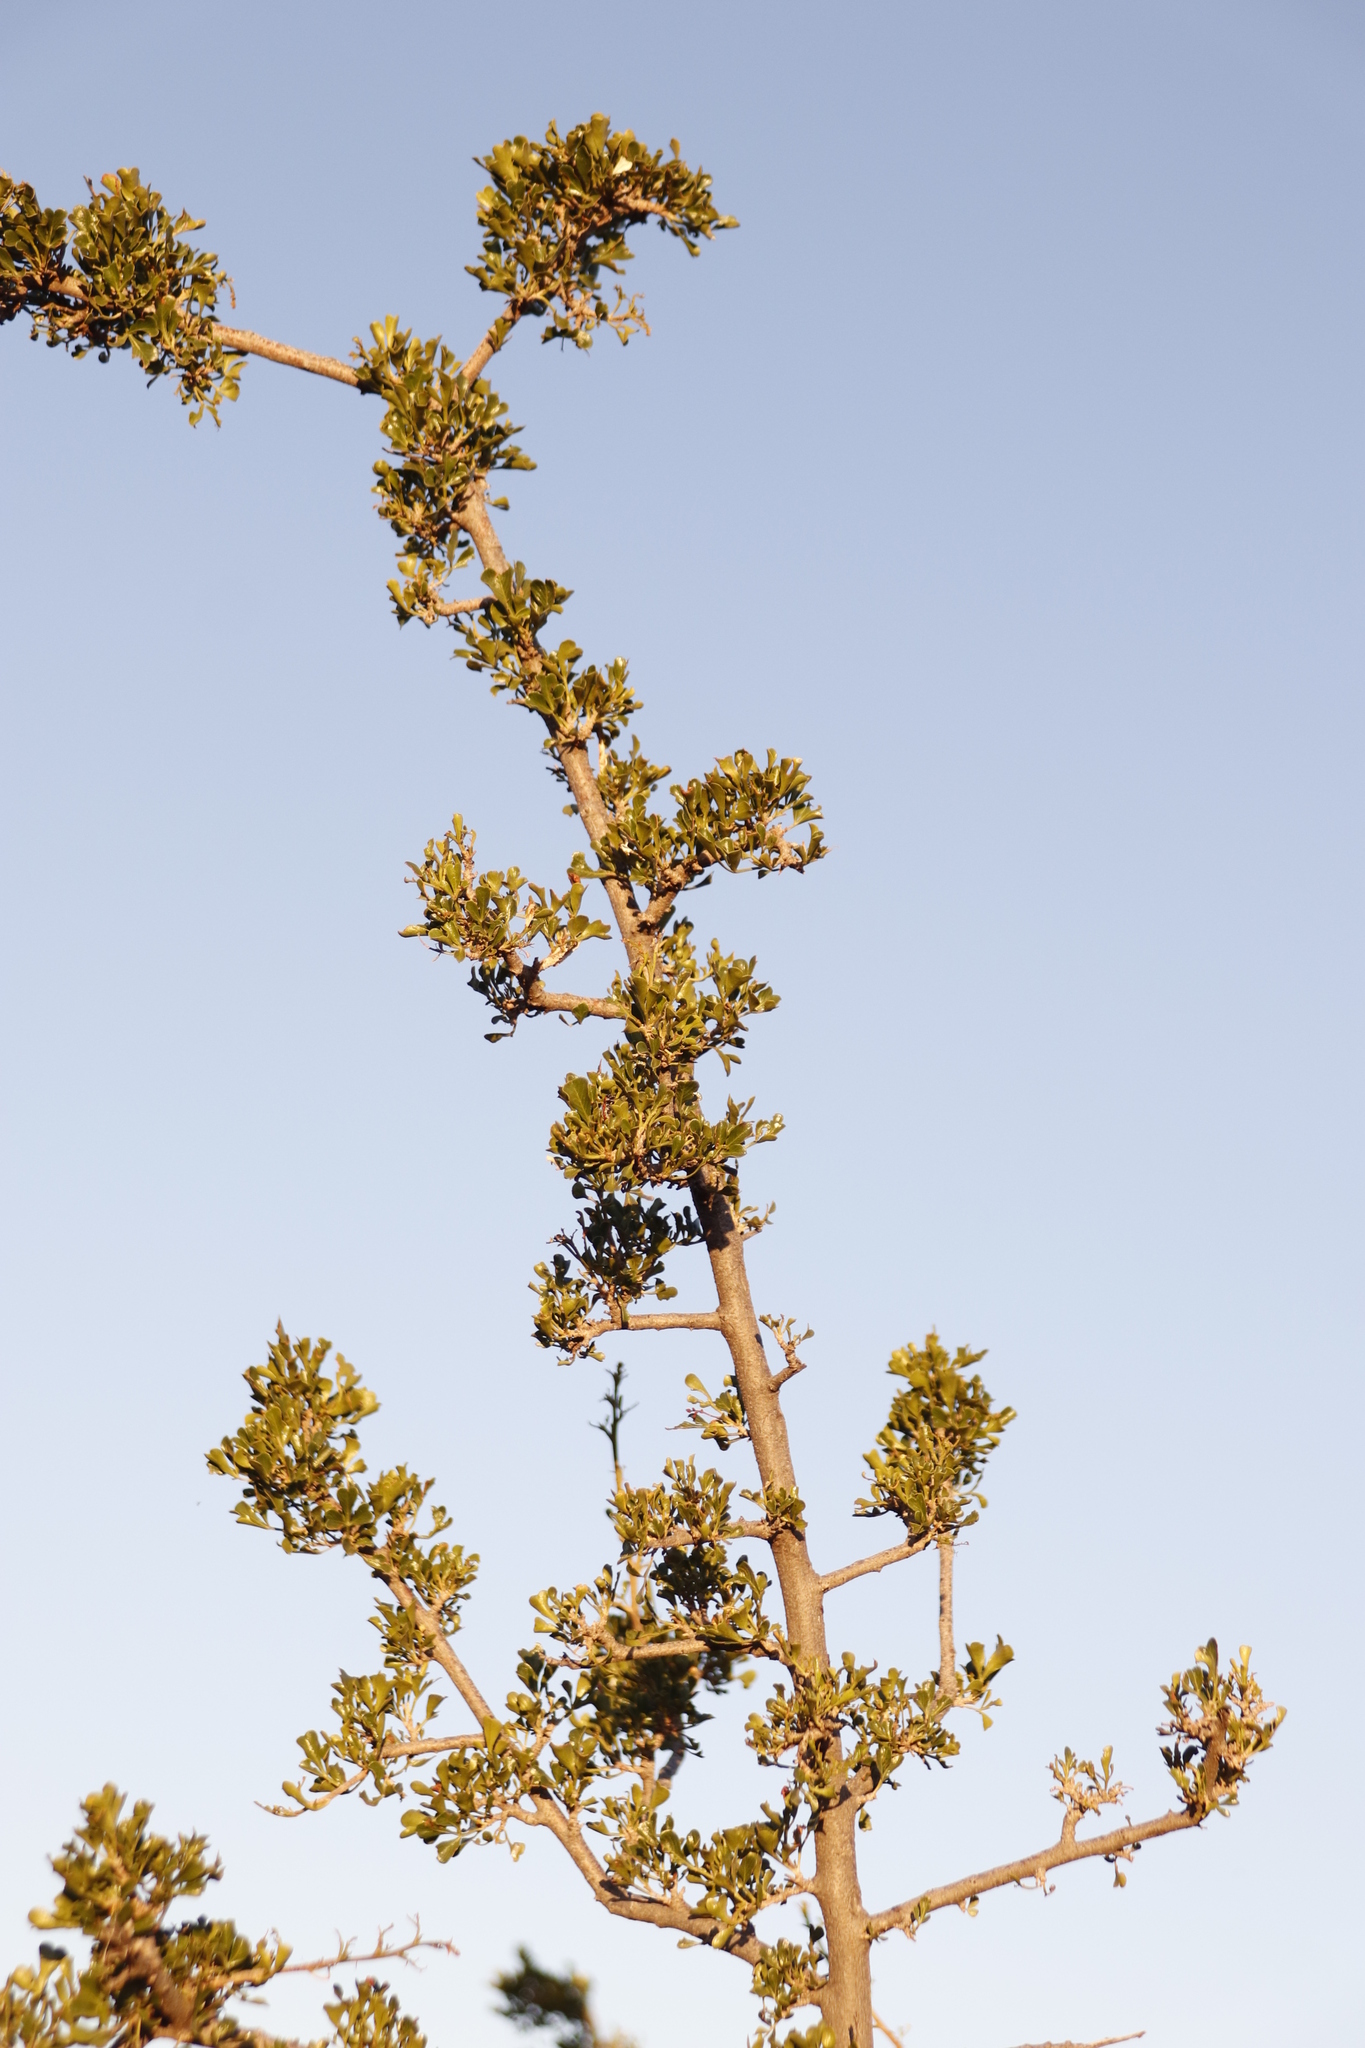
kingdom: Plantae
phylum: Tracheophyta
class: Magnoliopsida
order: Sapindales
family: Anacardiaceae
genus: Searsia
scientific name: Searsia burchellii
